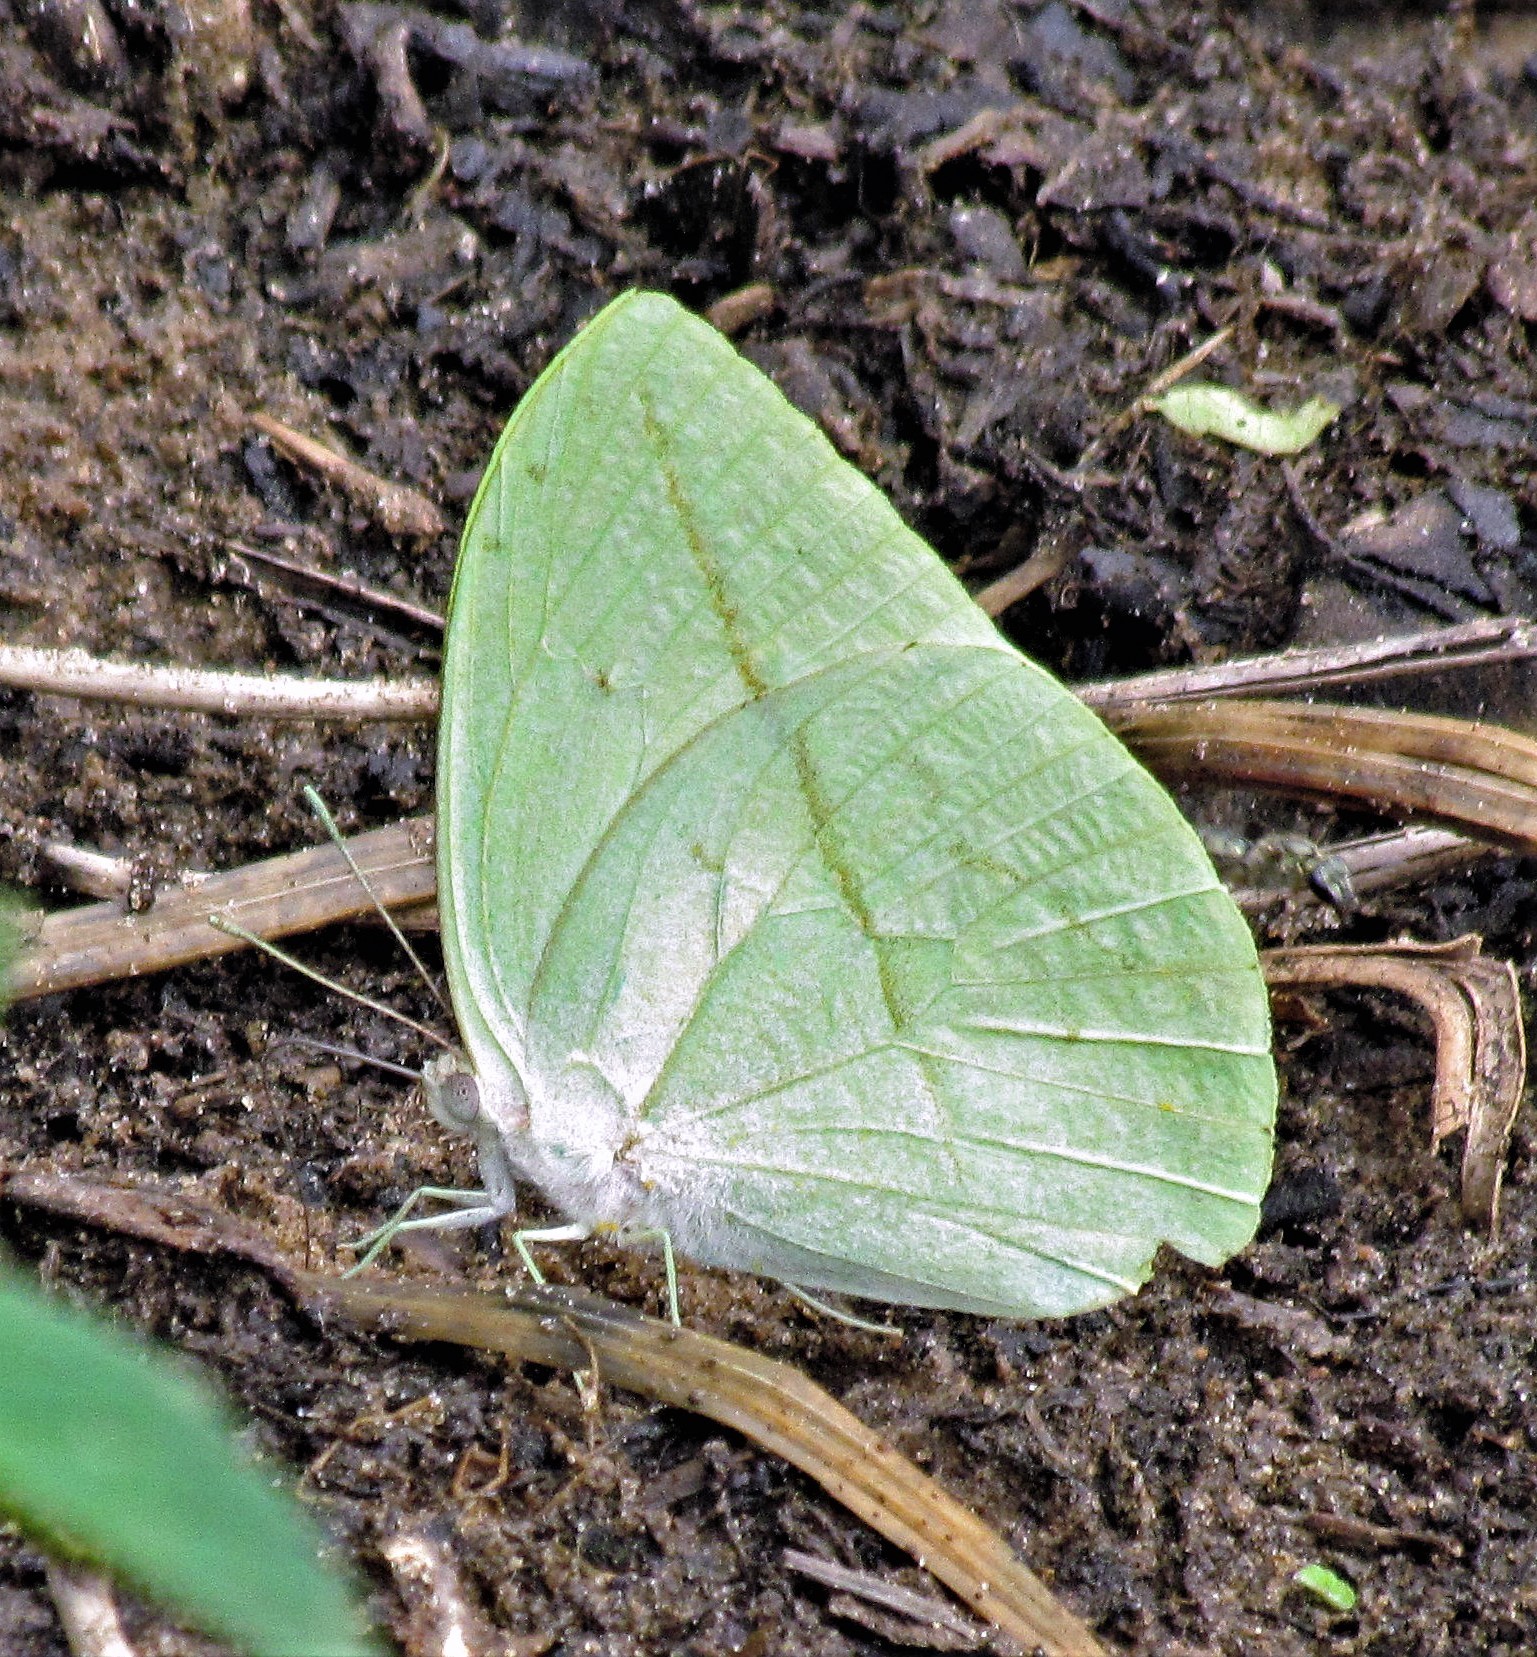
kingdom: Animalia
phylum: Arthropoda
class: Insecta
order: Lepidoptera
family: Pieridae
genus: Rhabdodryas
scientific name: Rhabdodryas trite
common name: Straight-lined sulphur
